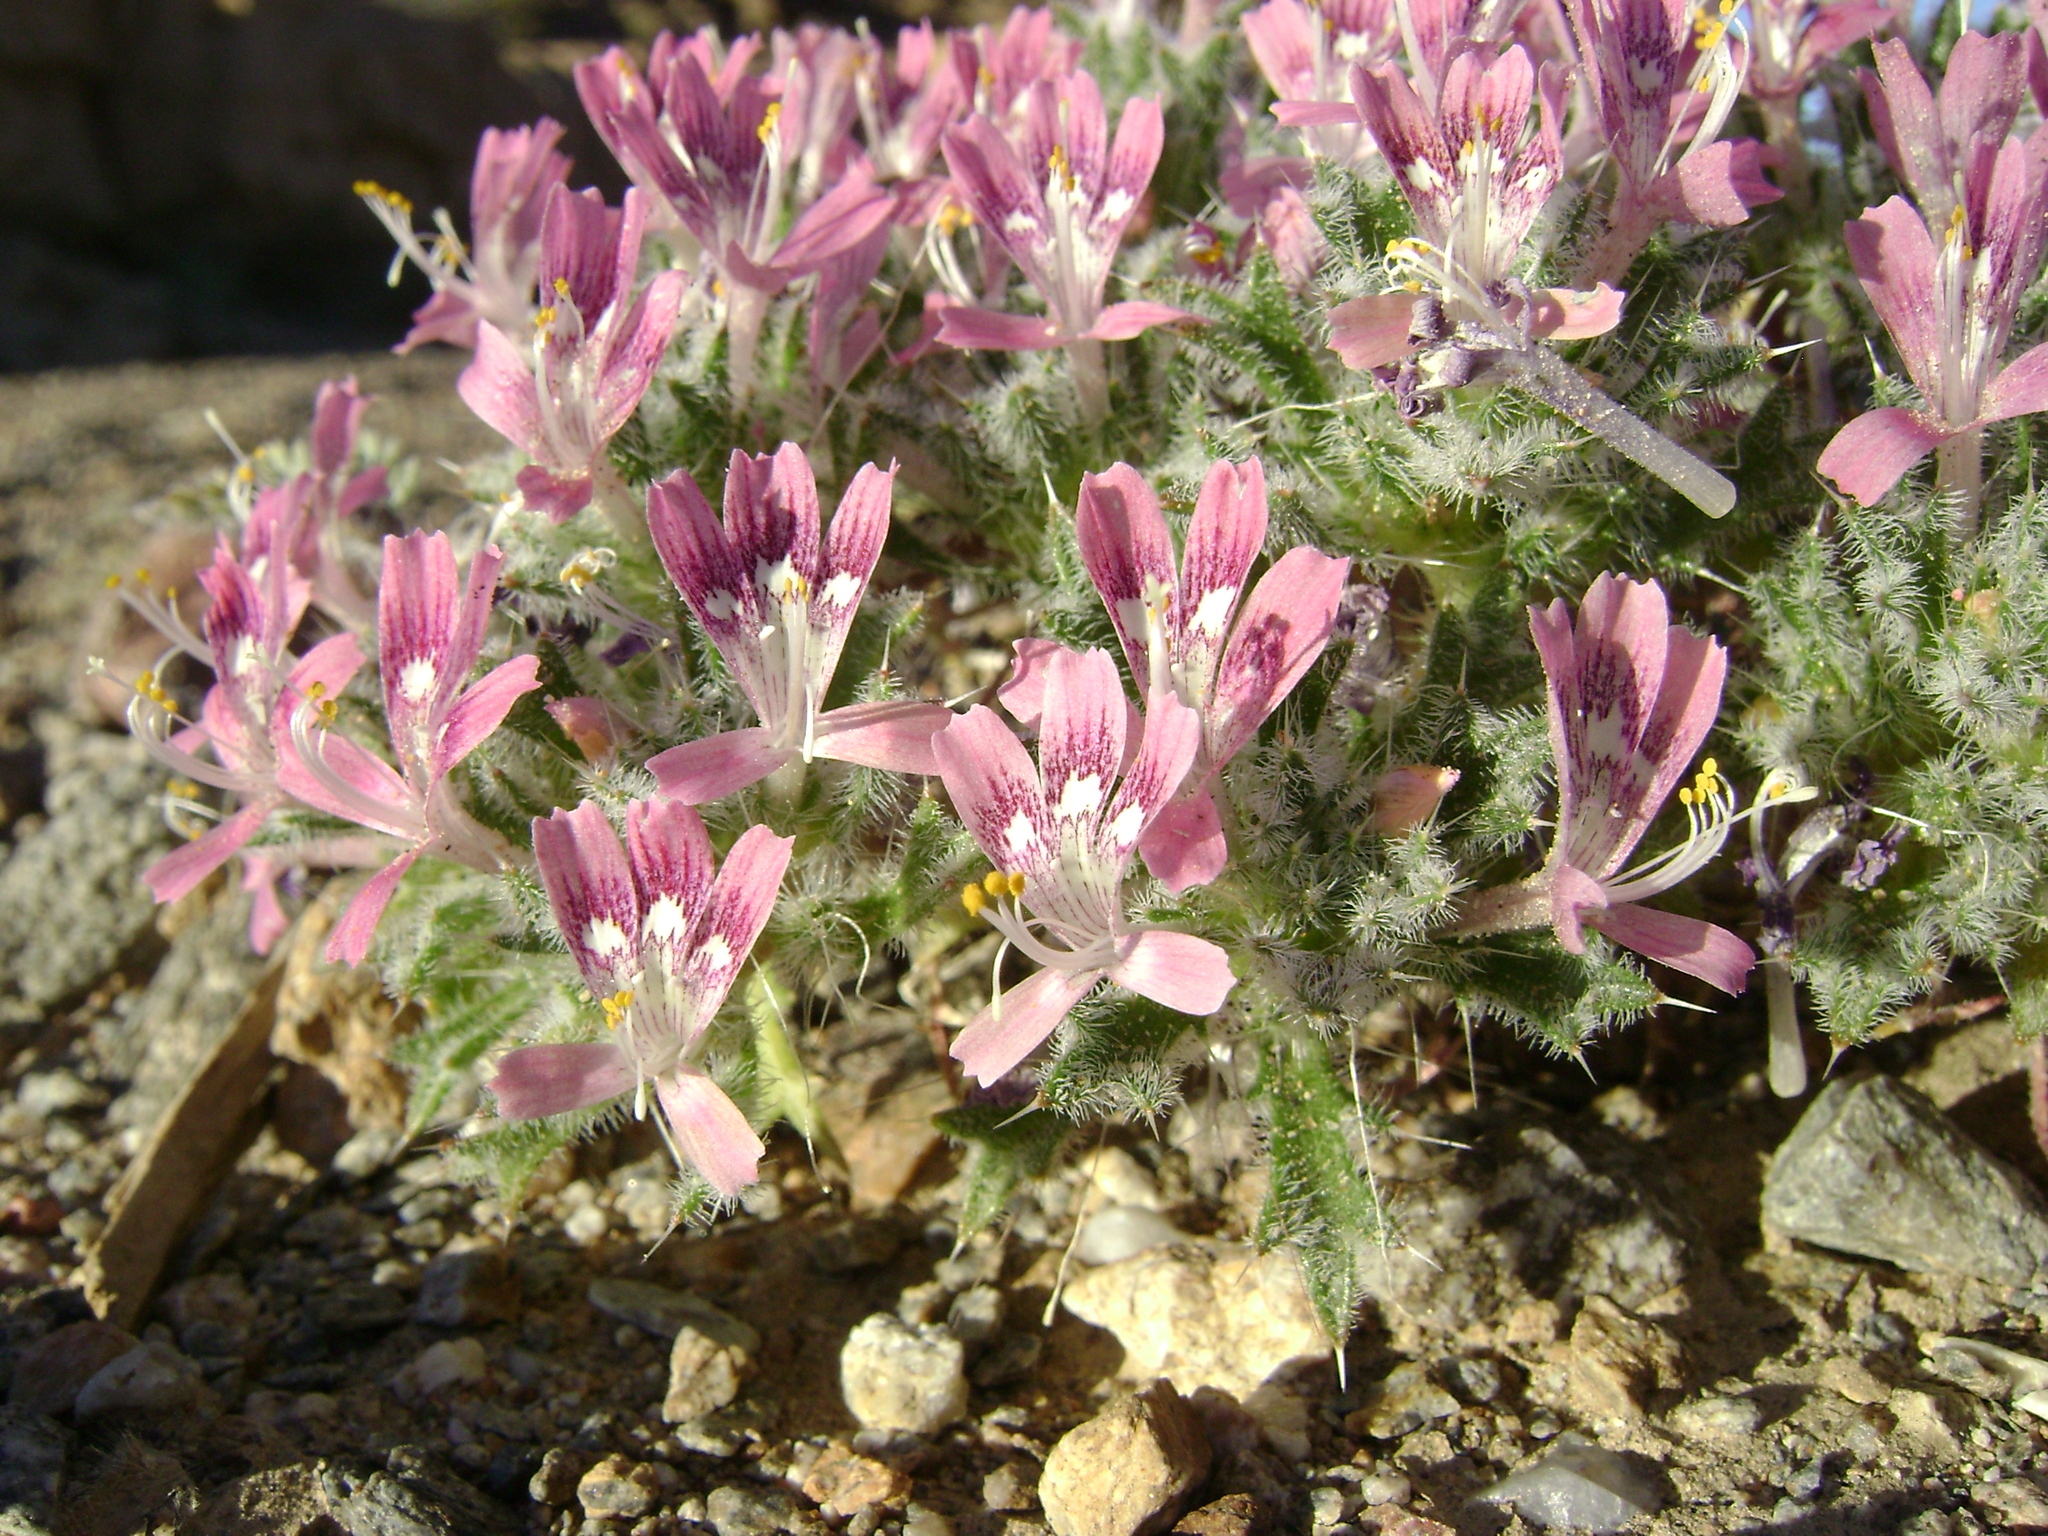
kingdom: Plantae
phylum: Tracheophyta
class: Magnoliopsida
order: Ericales
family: Polemoniaceae
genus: Loeseliastrum
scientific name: Loeseliastrum matthewsii
